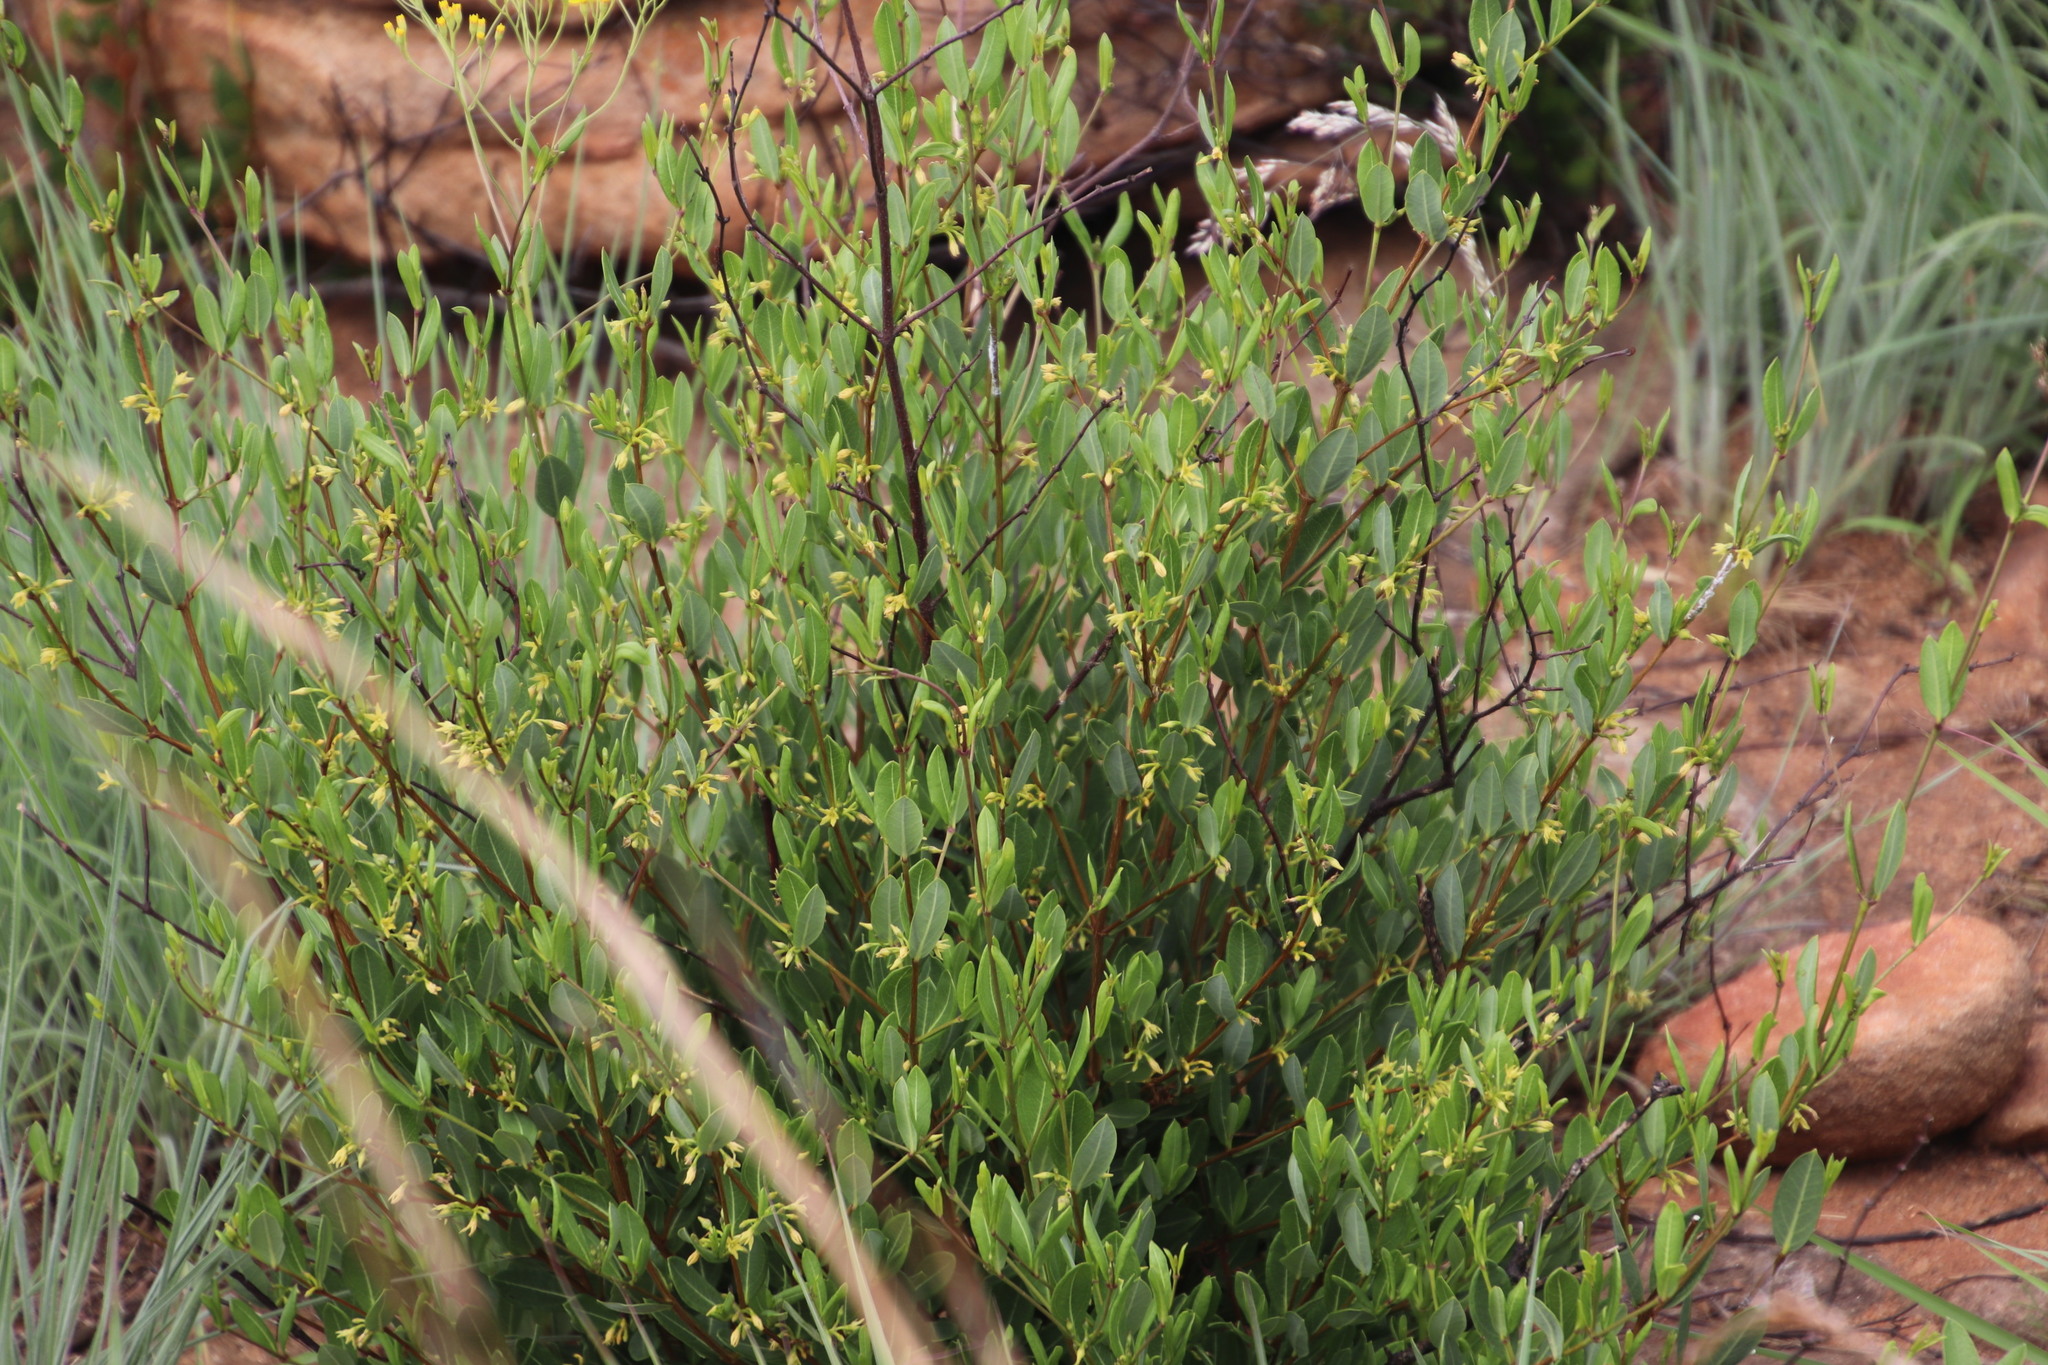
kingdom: Plantae
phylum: Tracheophyta
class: Magnoliopsida
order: Gentianales
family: Apocynaceae
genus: Cryptolepis
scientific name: Cryptolepis oblongifolia
